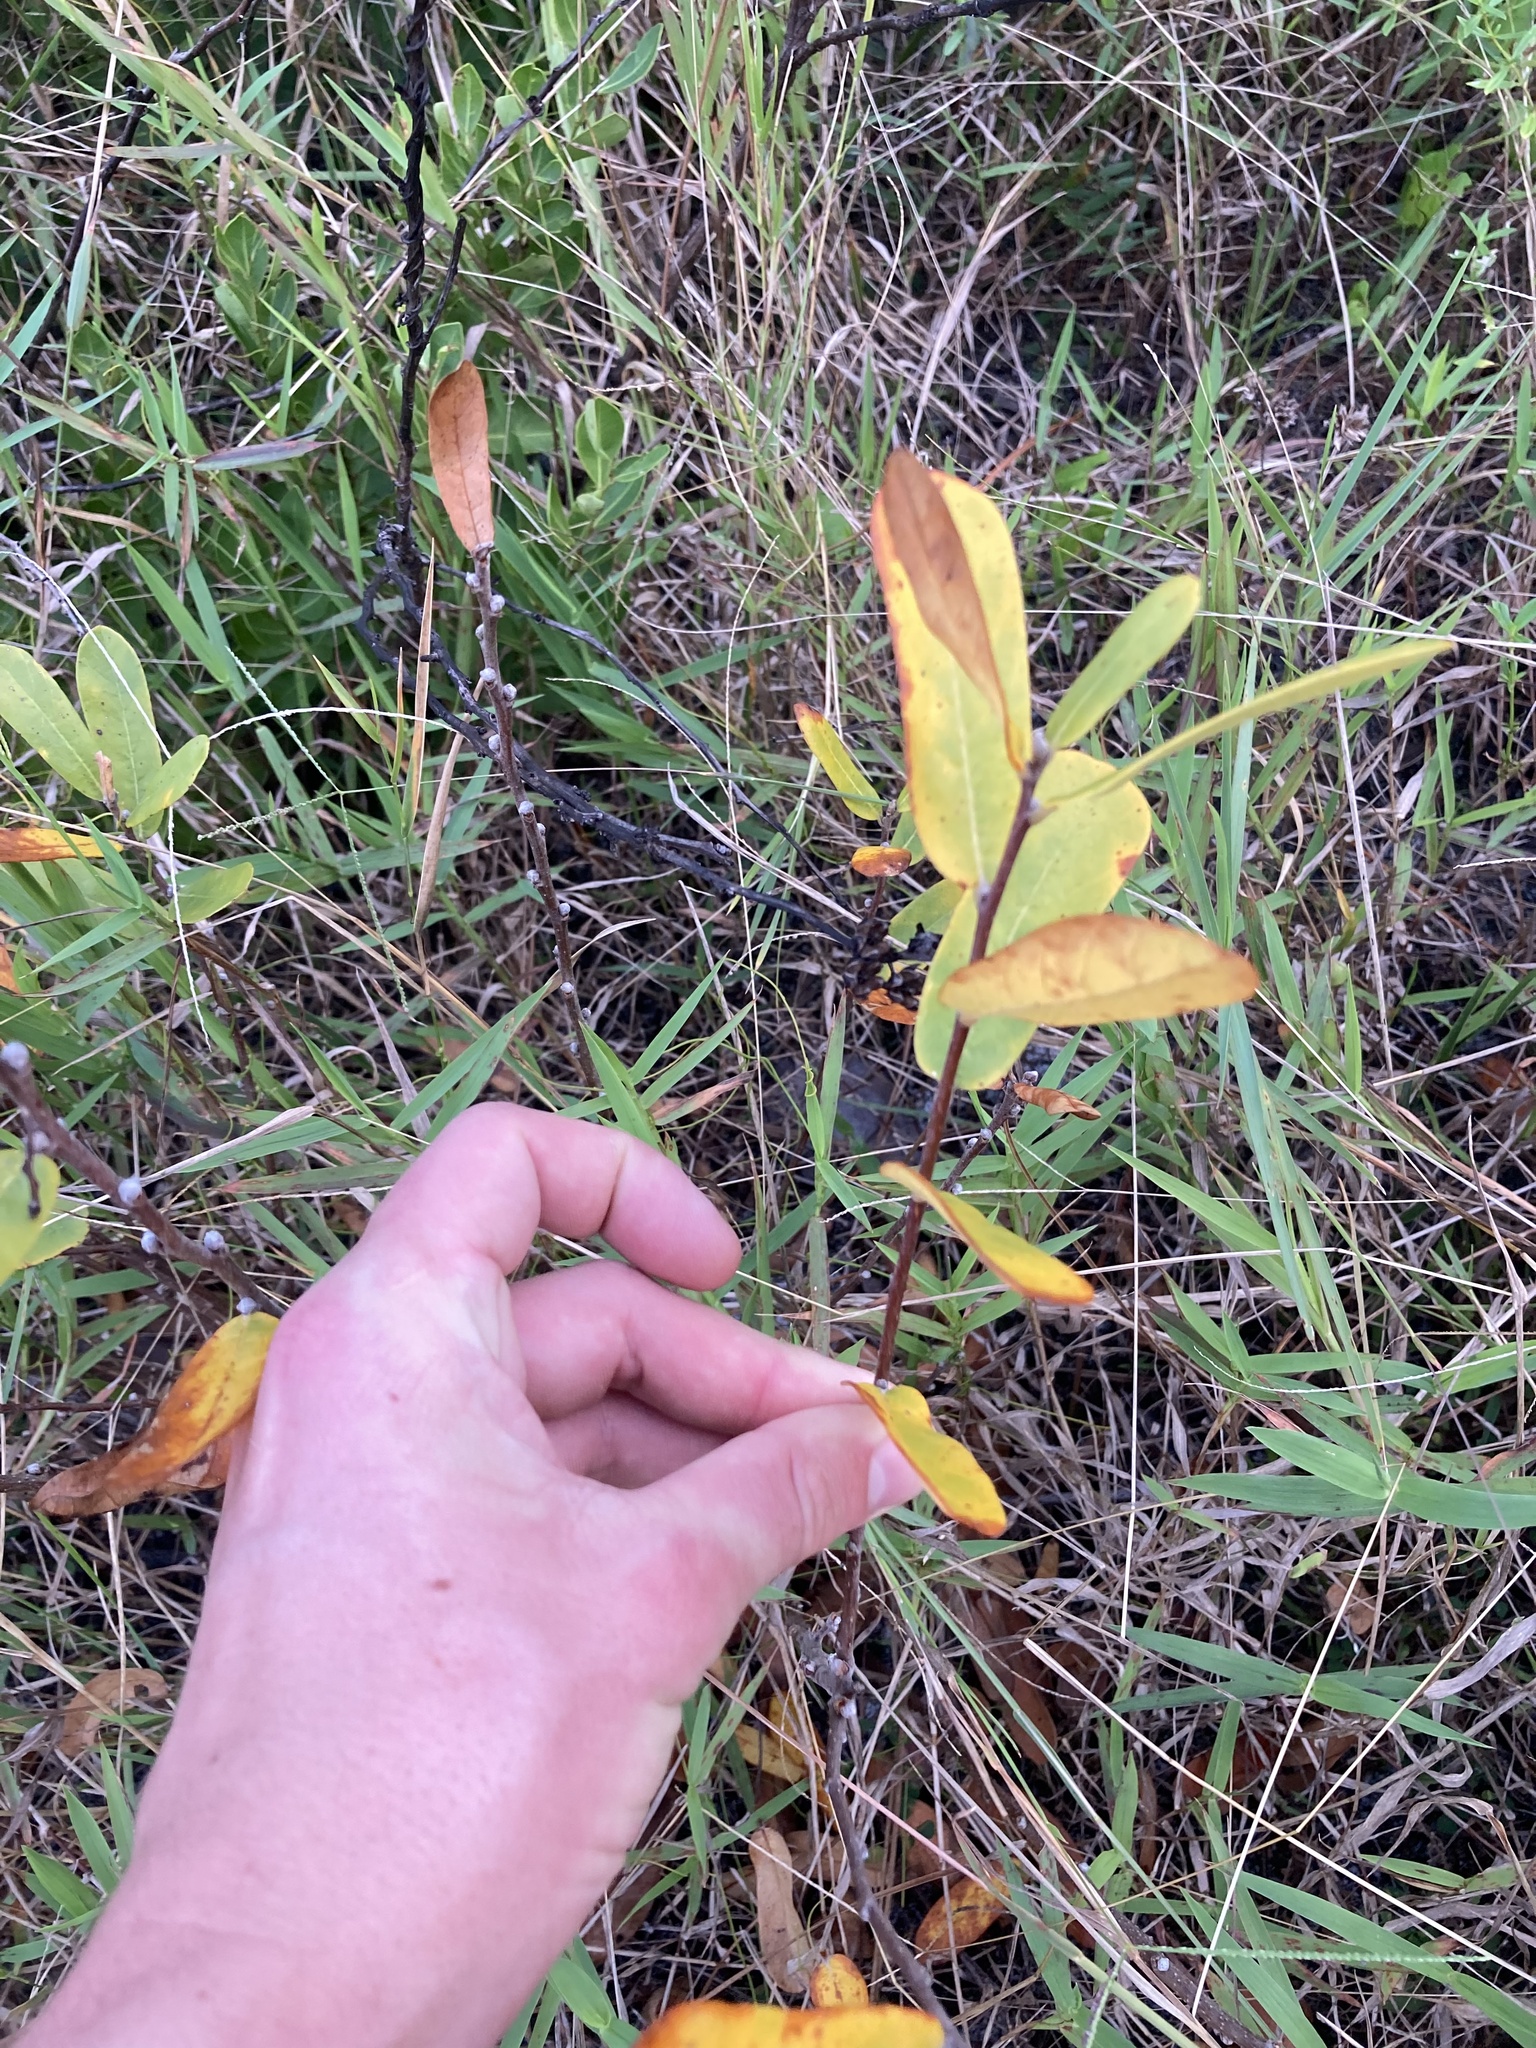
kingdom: Plantae
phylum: Tracheophyta
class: Magnoliopsida
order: Magnoliales
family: Annonaceae
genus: Asimina
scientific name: Asimina reticulata
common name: Flag pawpaw
